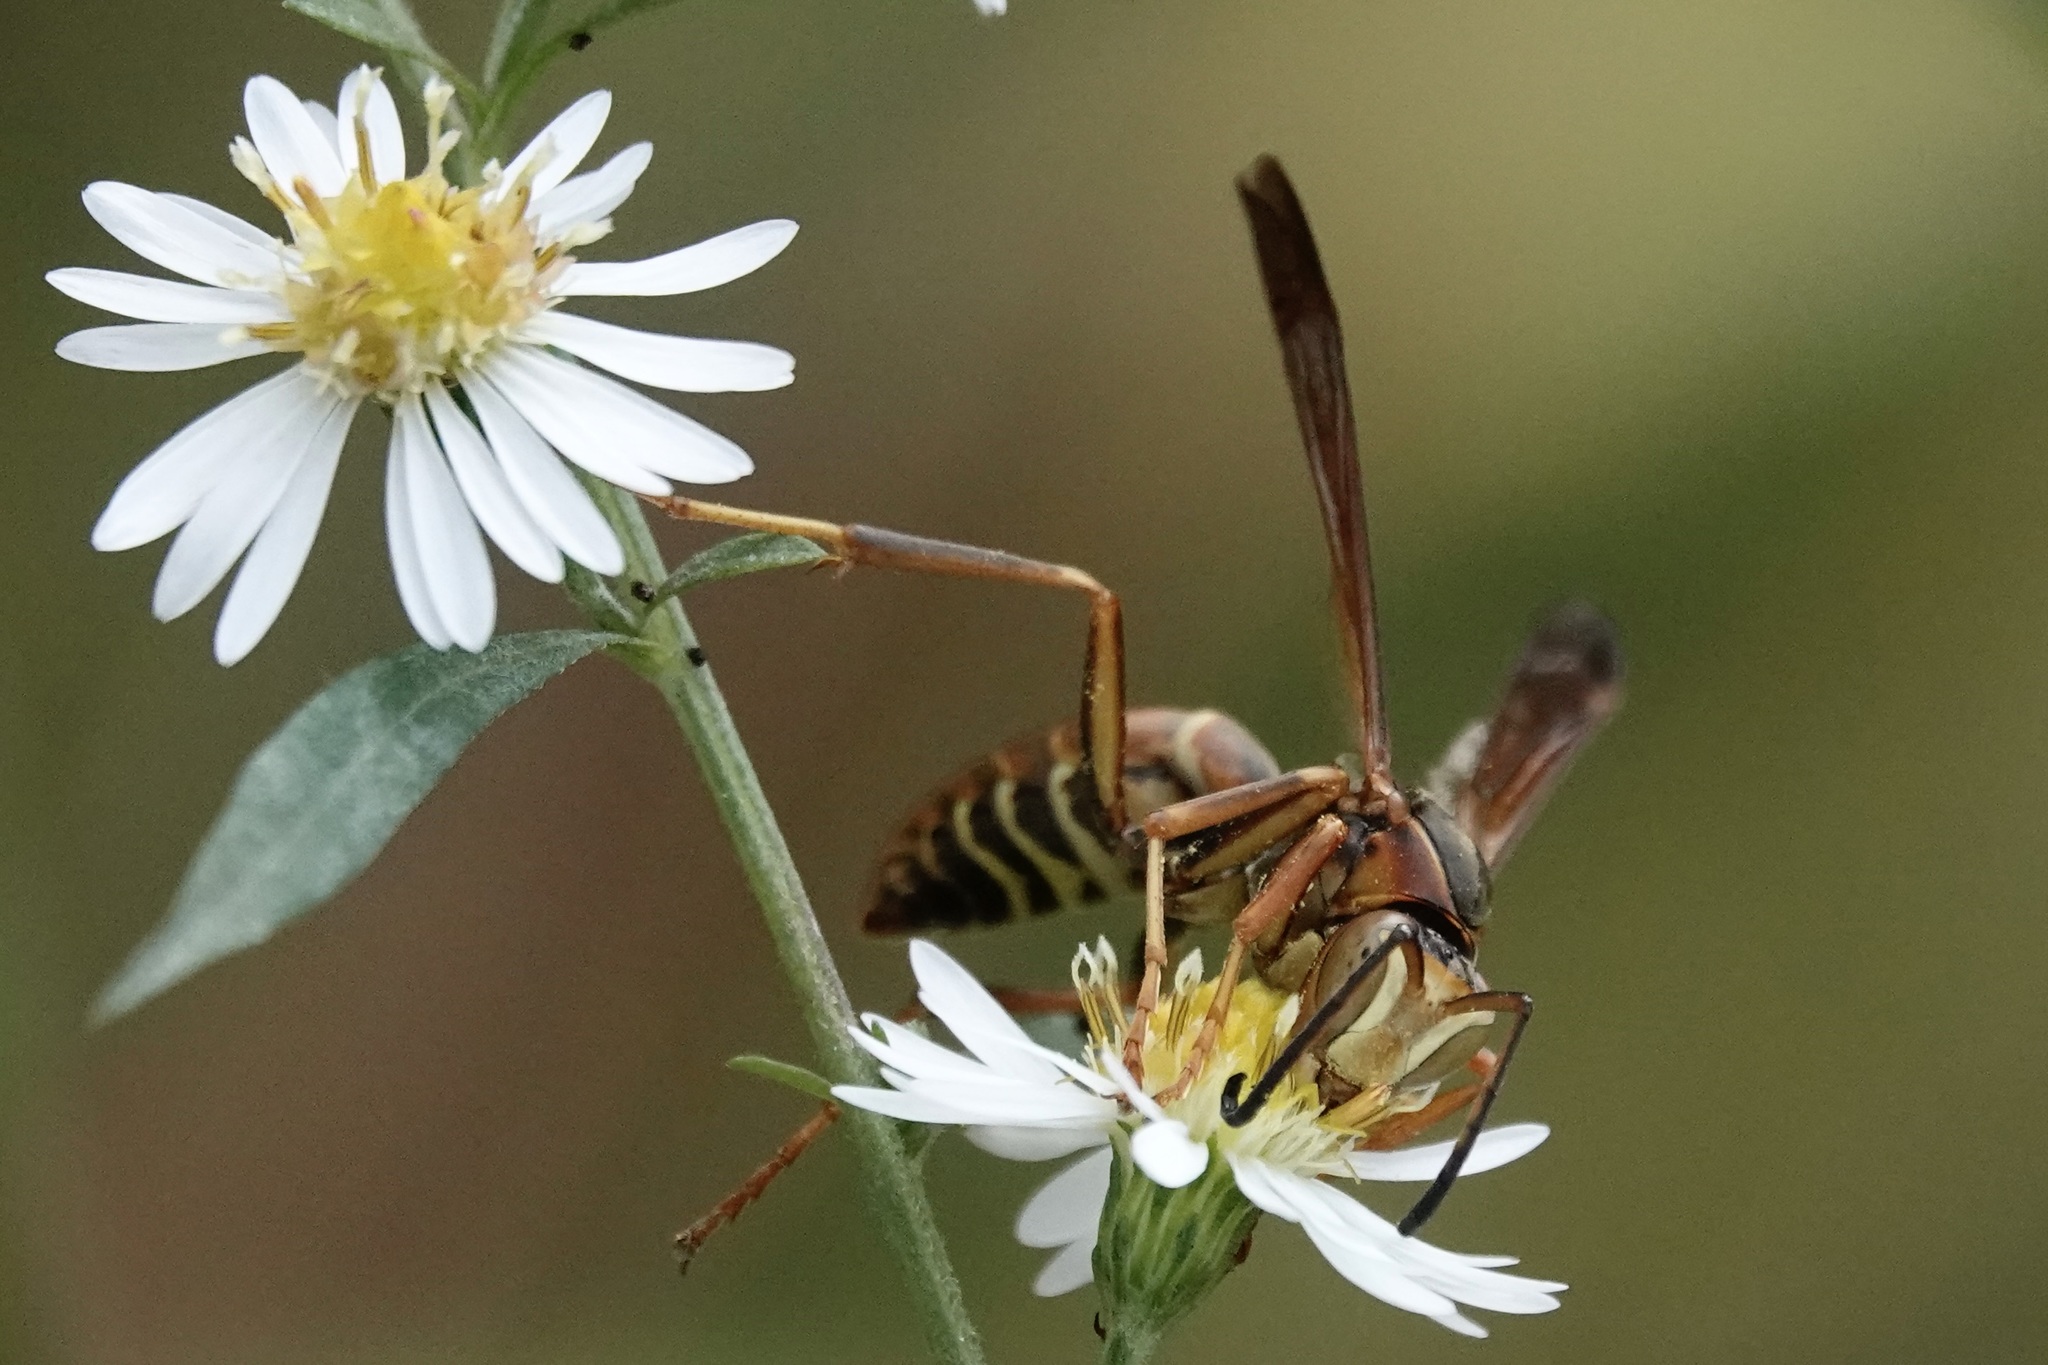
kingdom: Animalia
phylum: Arthropoda
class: Insecta
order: Hymenoptera
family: Eumenidae
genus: Polistes
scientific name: Polistes fuscatus
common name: Dark paper wasp
